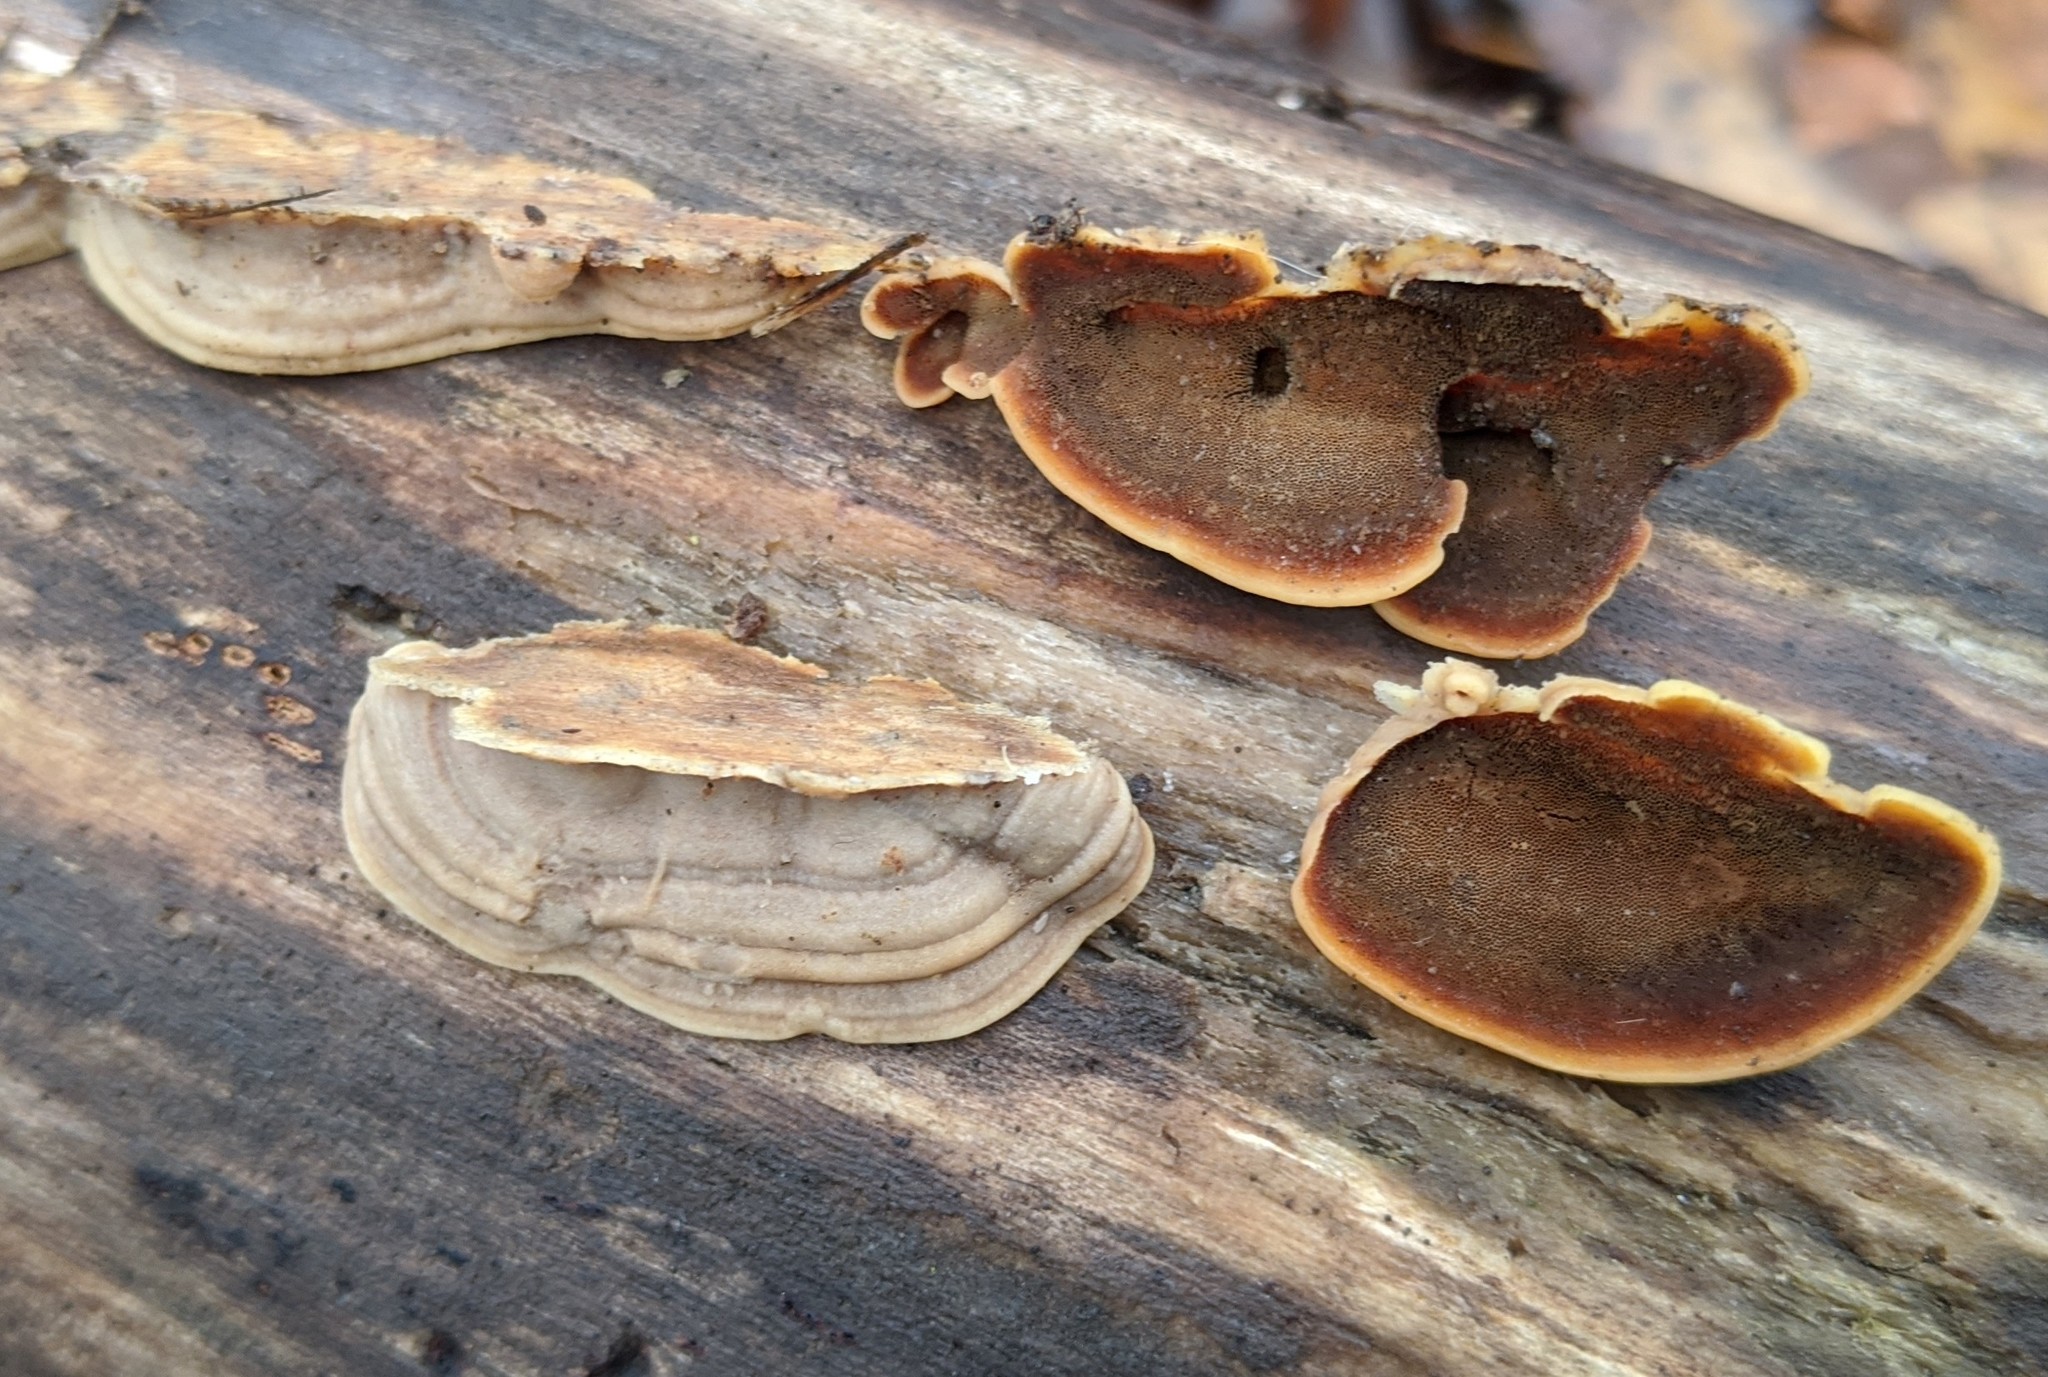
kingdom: Fungi
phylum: Basidiomycota
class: Agaricomycetes
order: Polyporales
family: Steccherinaceae
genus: Metuloidea
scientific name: Metuloidea fragrans
